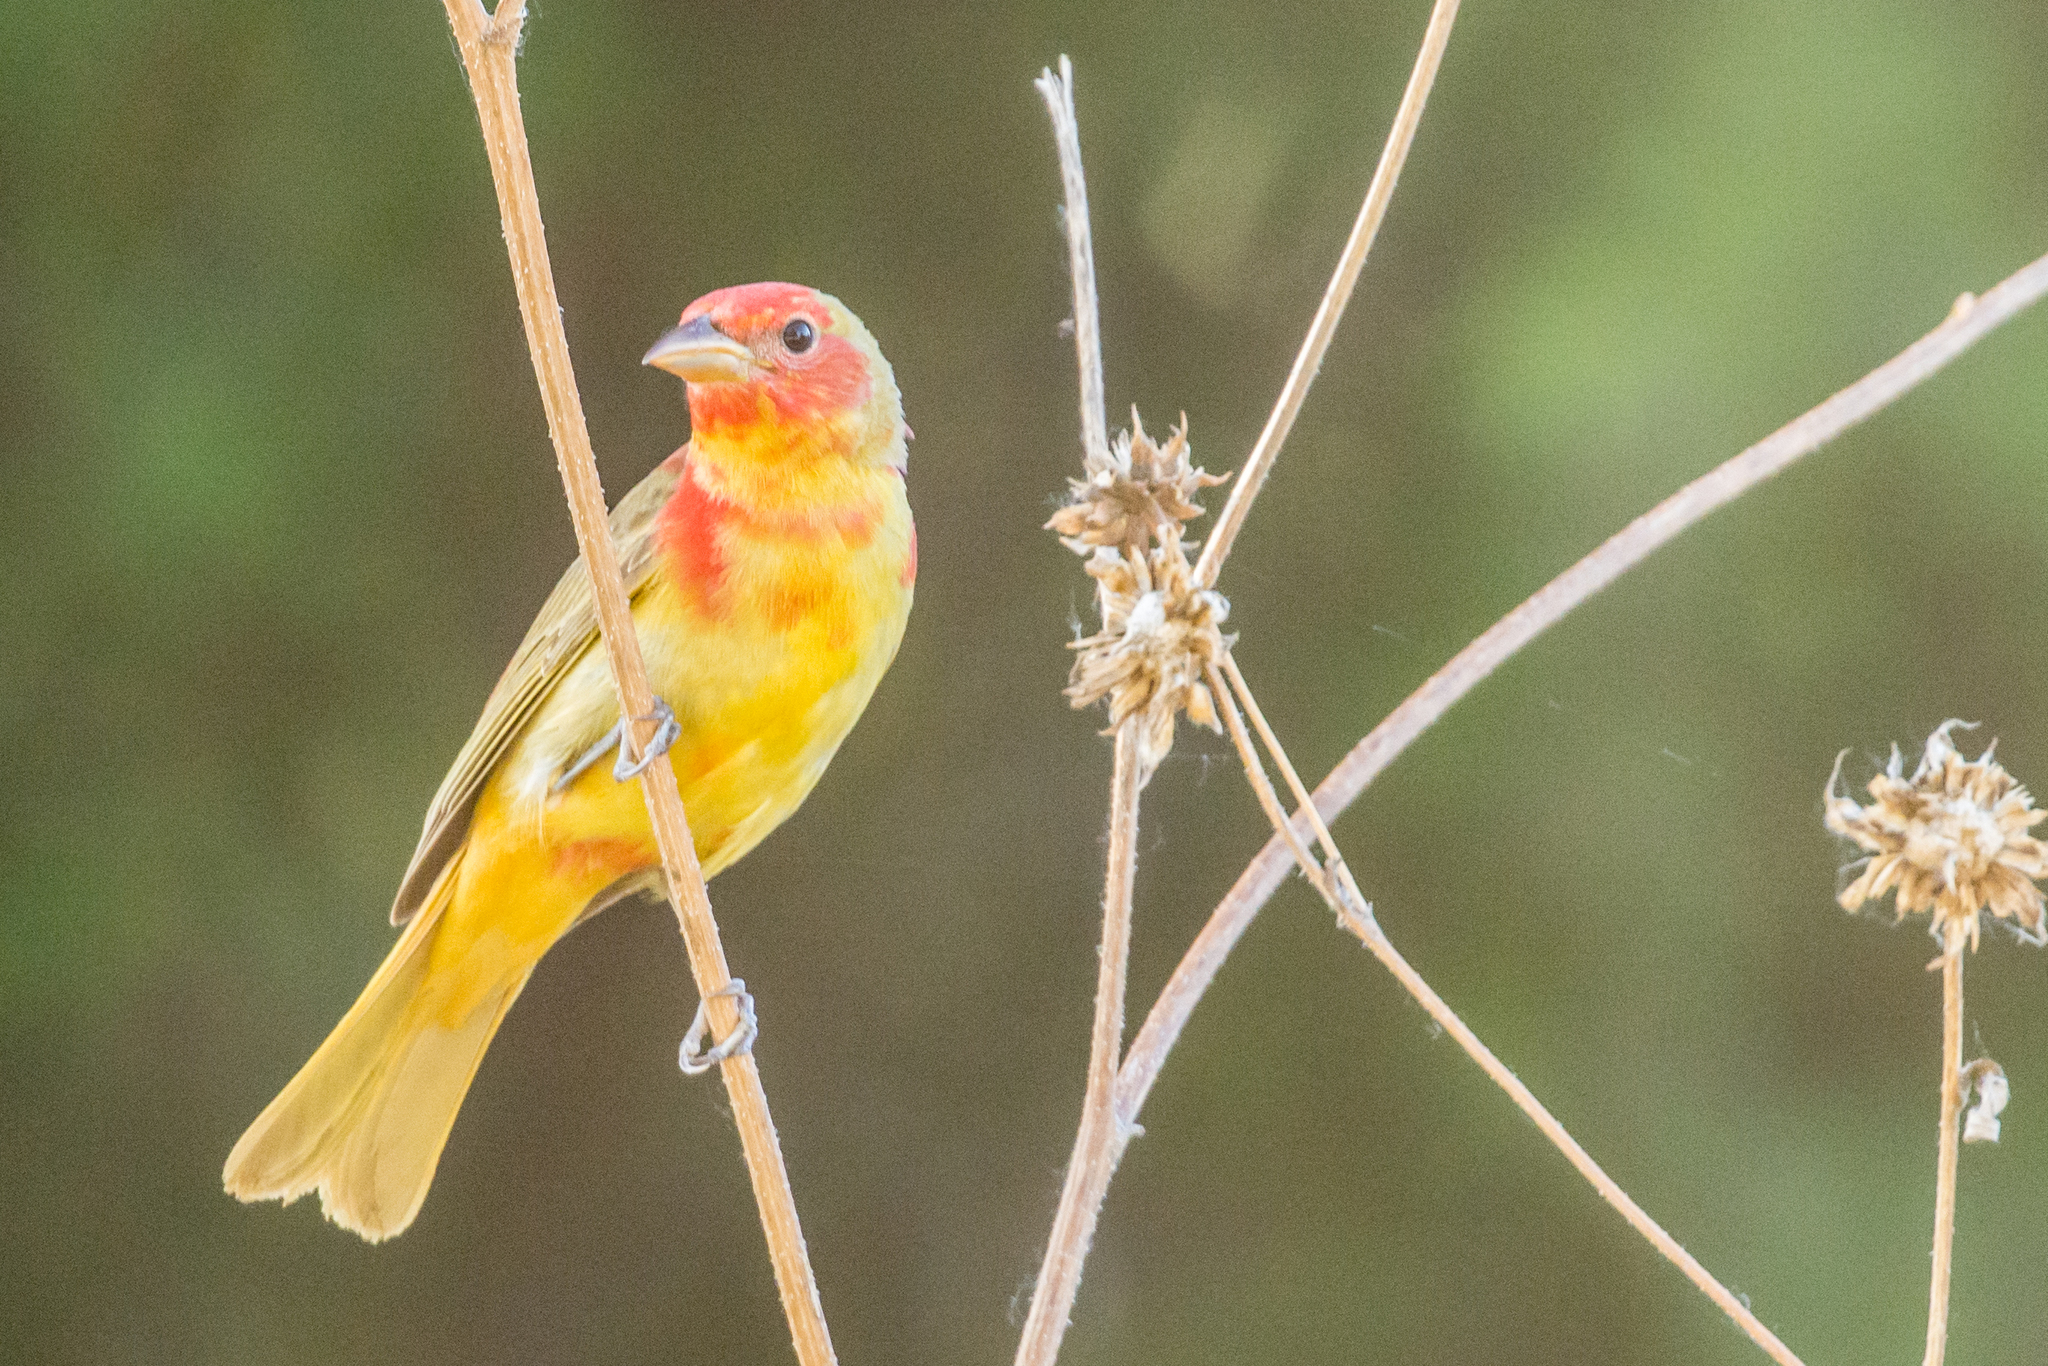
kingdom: Animalia
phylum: Chordata
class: Aves
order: Passeriformes
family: Cardinalidae
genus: Piranga
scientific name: Piranga rubra
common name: Summer tanager
